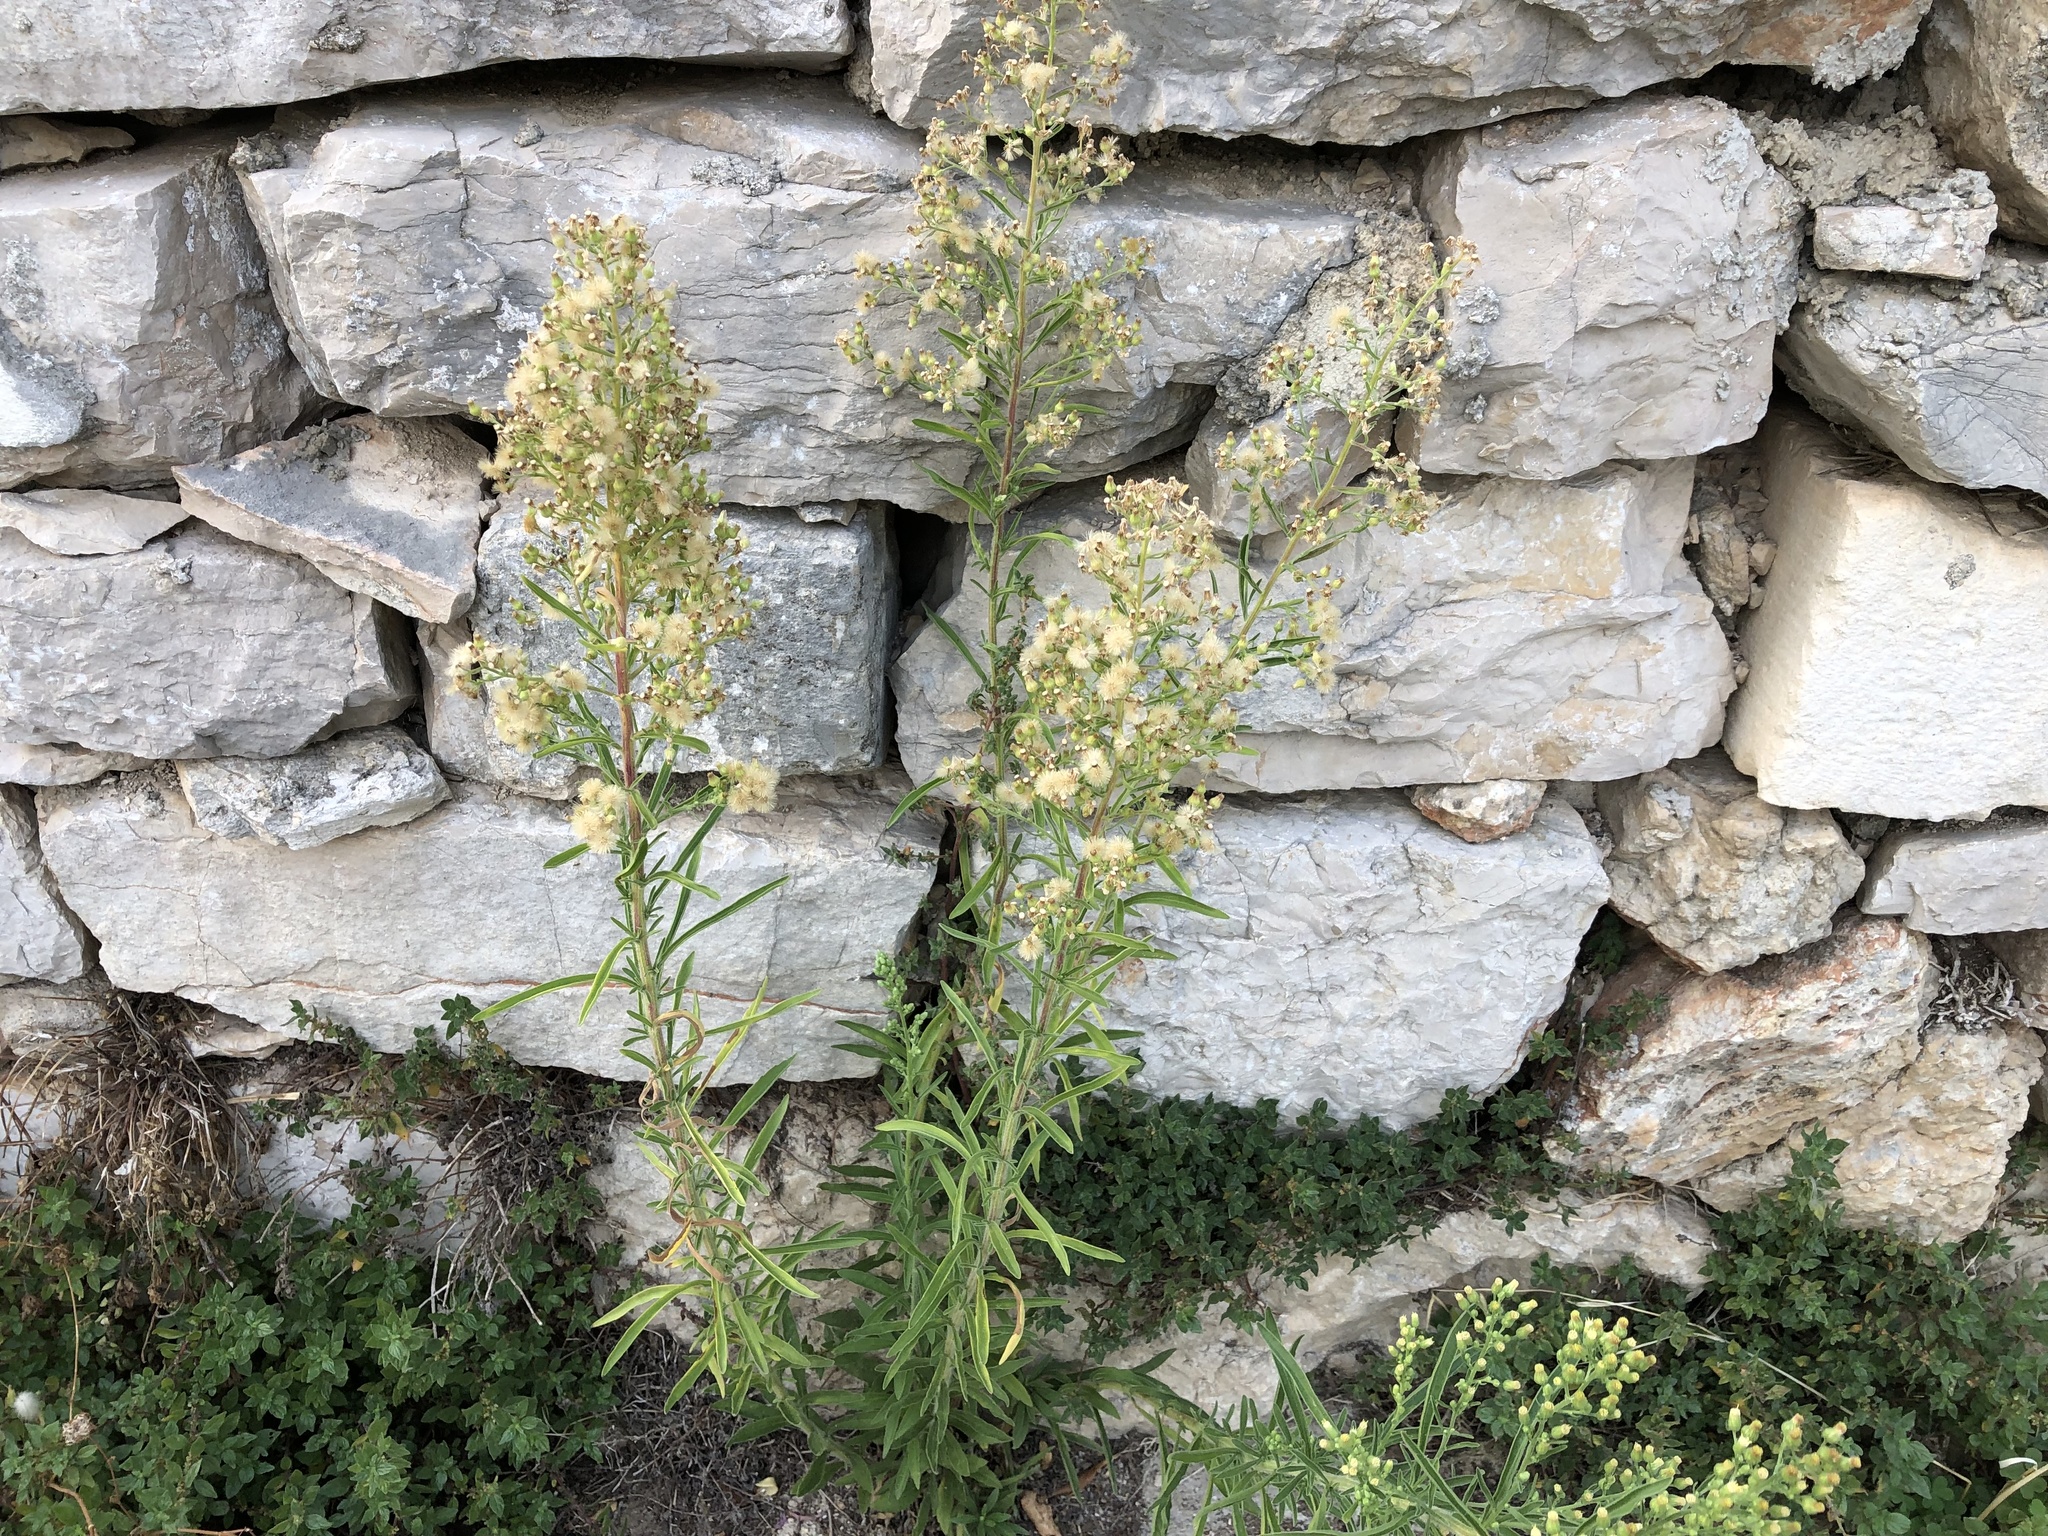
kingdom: Plantae
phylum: Tracheophyta
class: Magnoliopsida
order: Asterales
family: Asteraceae
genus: Erigeron
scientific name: Erigeron canadensis
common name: Canadian fleabane
